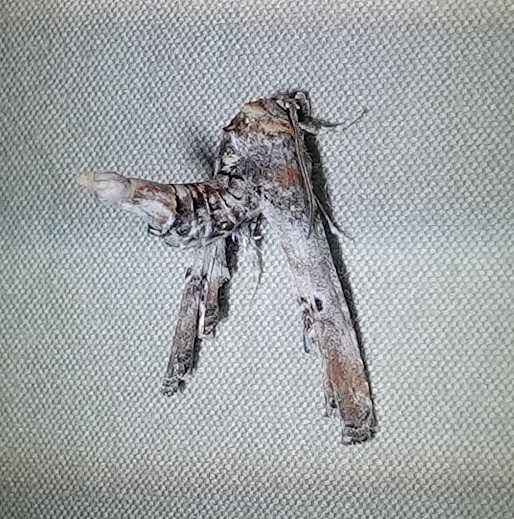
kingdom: Animalia
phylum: Arthropoda
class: Insecta
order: Lepidoptera
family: Euteliidae
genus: Marathyssa
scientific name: Marathyssa inficita
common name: Dark marathyssa moth
